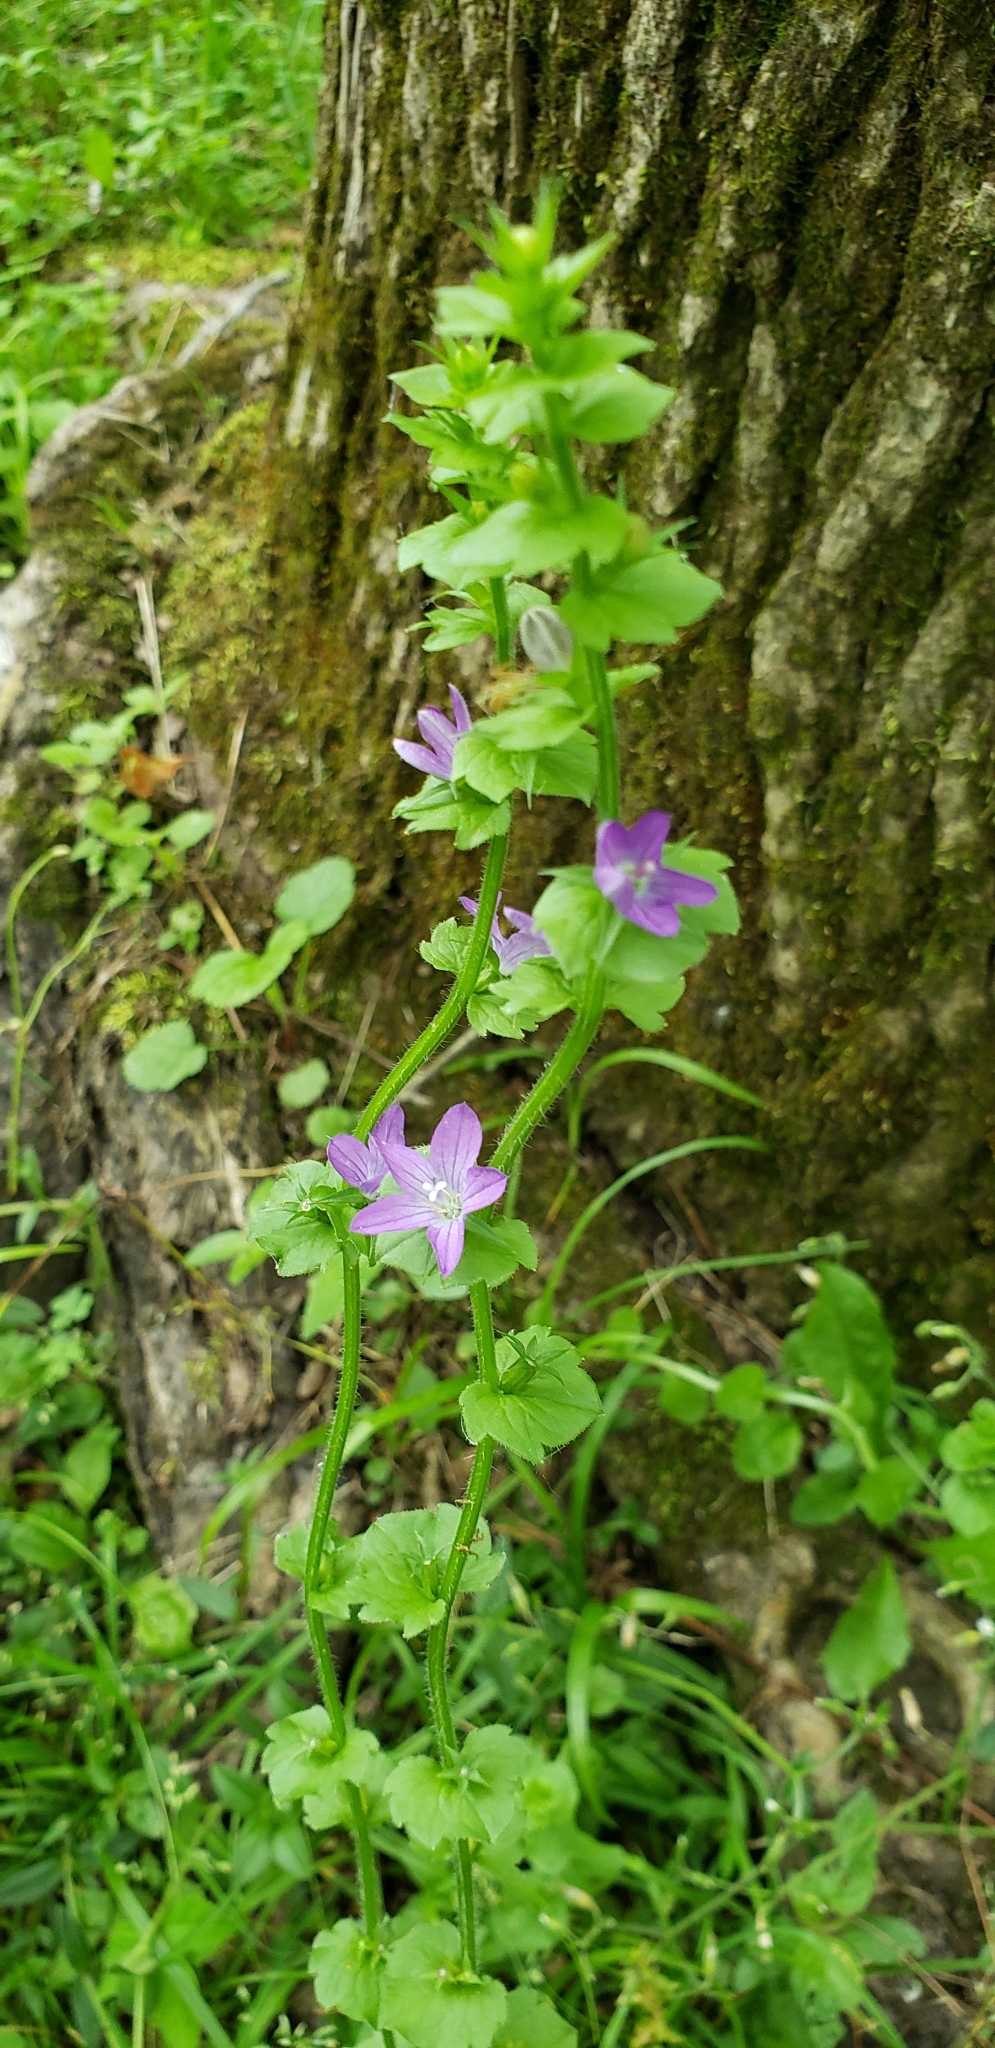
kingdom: Plantae
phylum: Tracheophyta
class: Magnoliopsida
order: Asterales
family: Campanulaceae
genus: Triodanis
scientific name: Triodanis perfoliata
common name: Clasping venus' looking-glass
